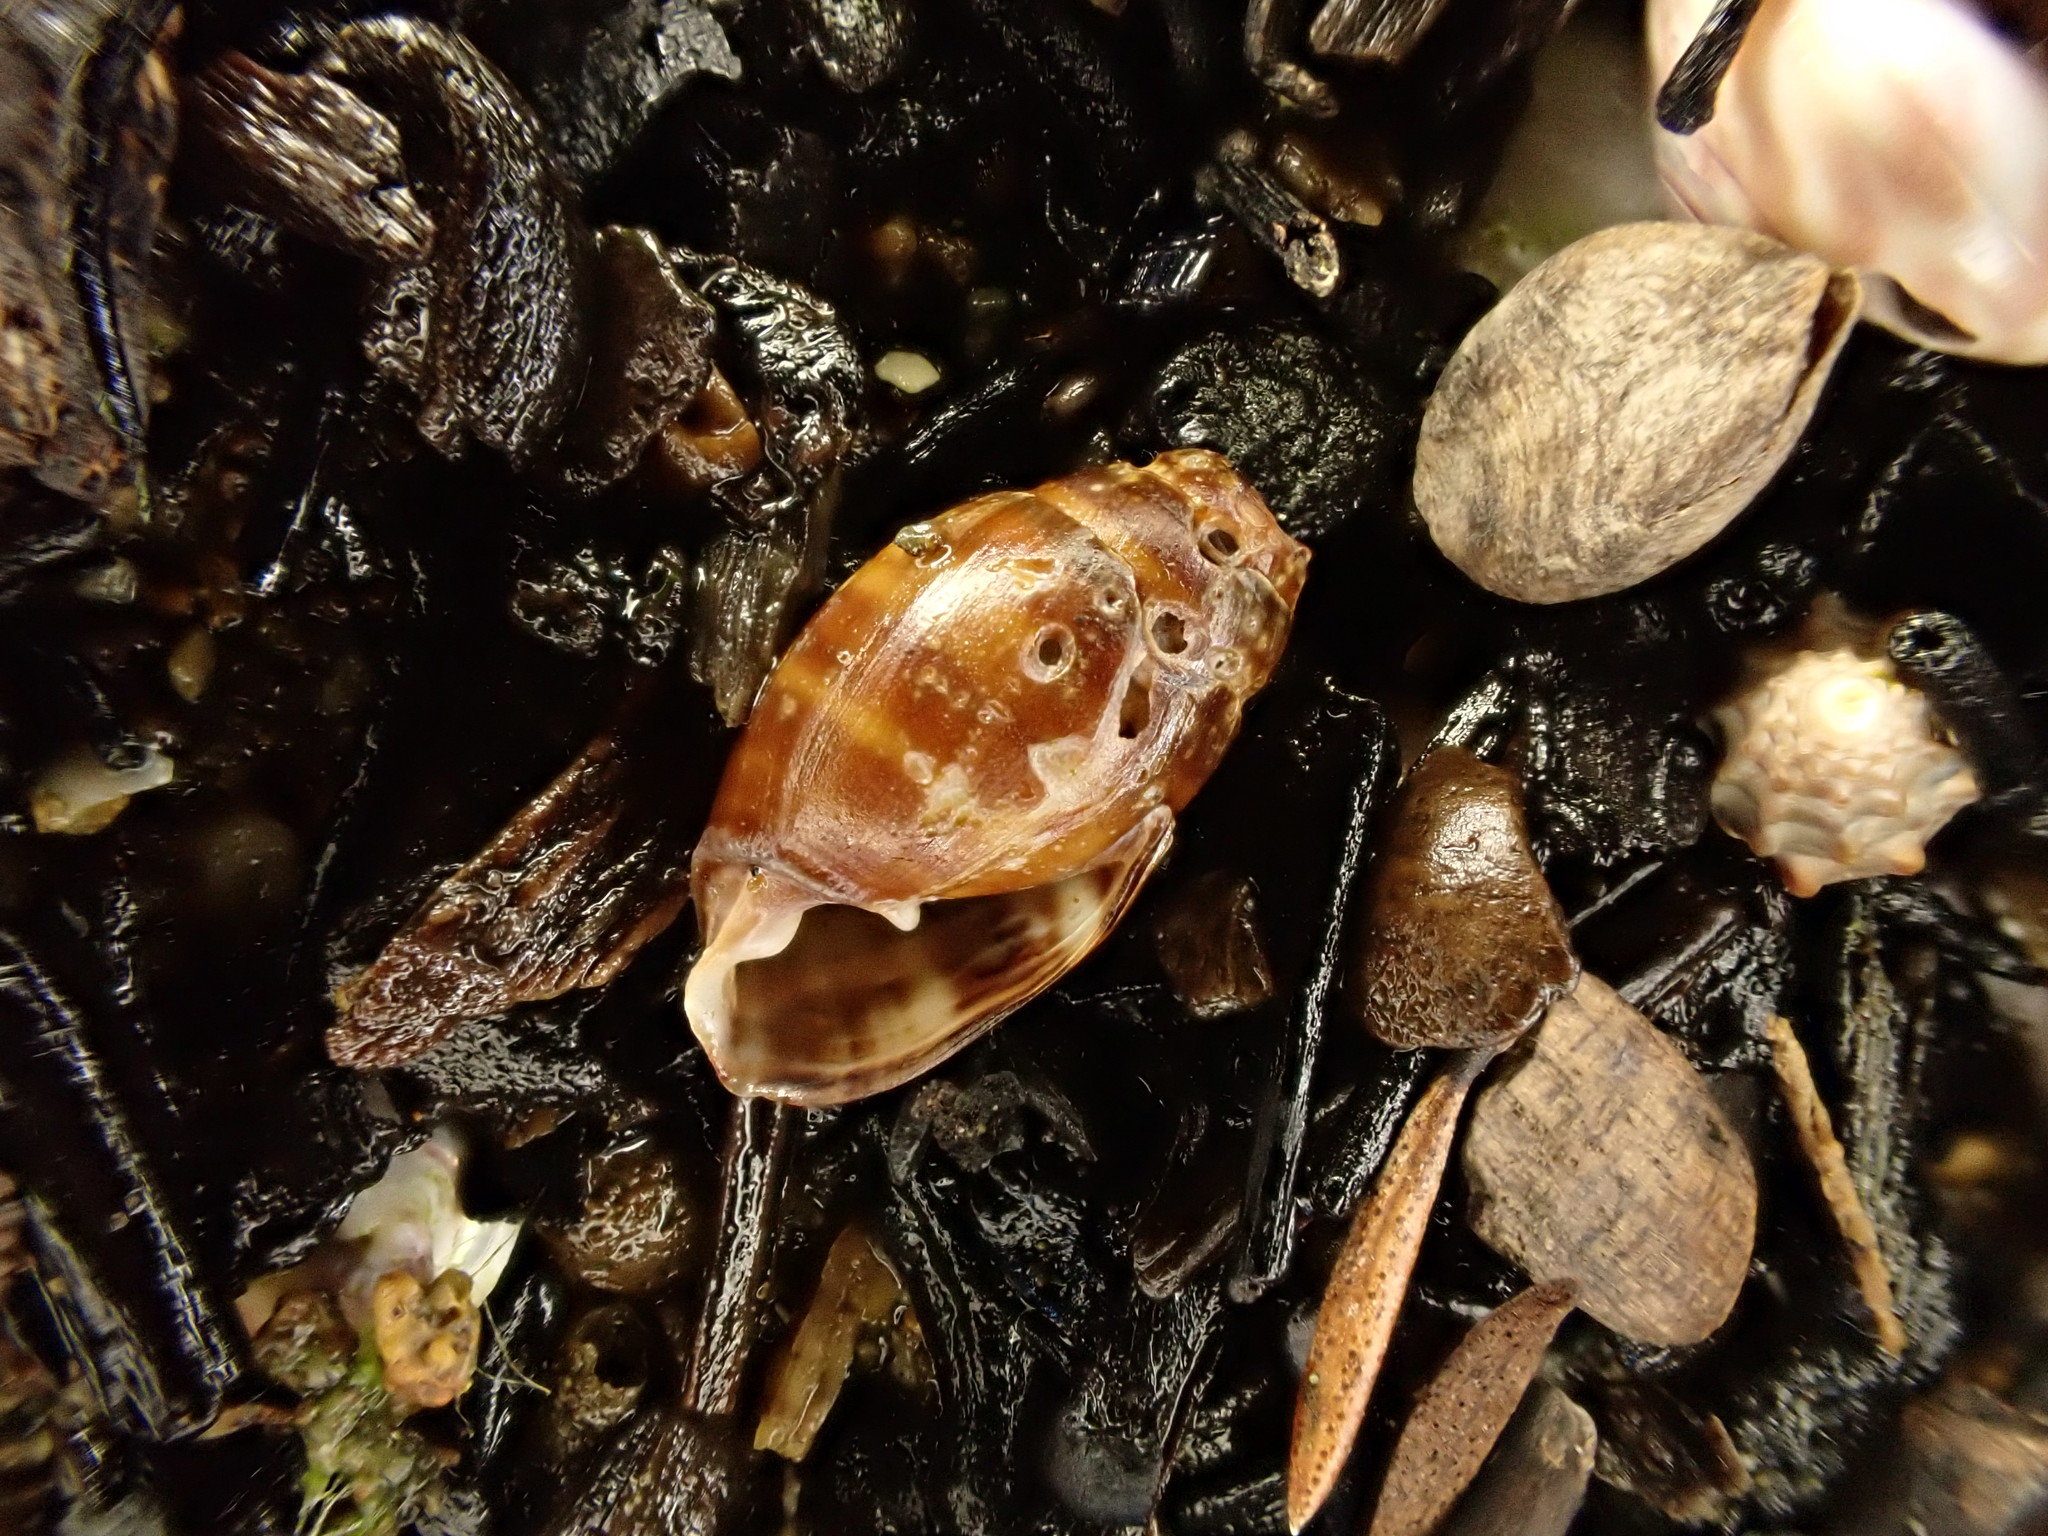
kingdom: Animalia
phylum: Mollusca
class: Gastropoda
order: Ellobiida
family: Ellobiidae
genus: Pleuroloba
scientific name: Pleuroloba costellaris
